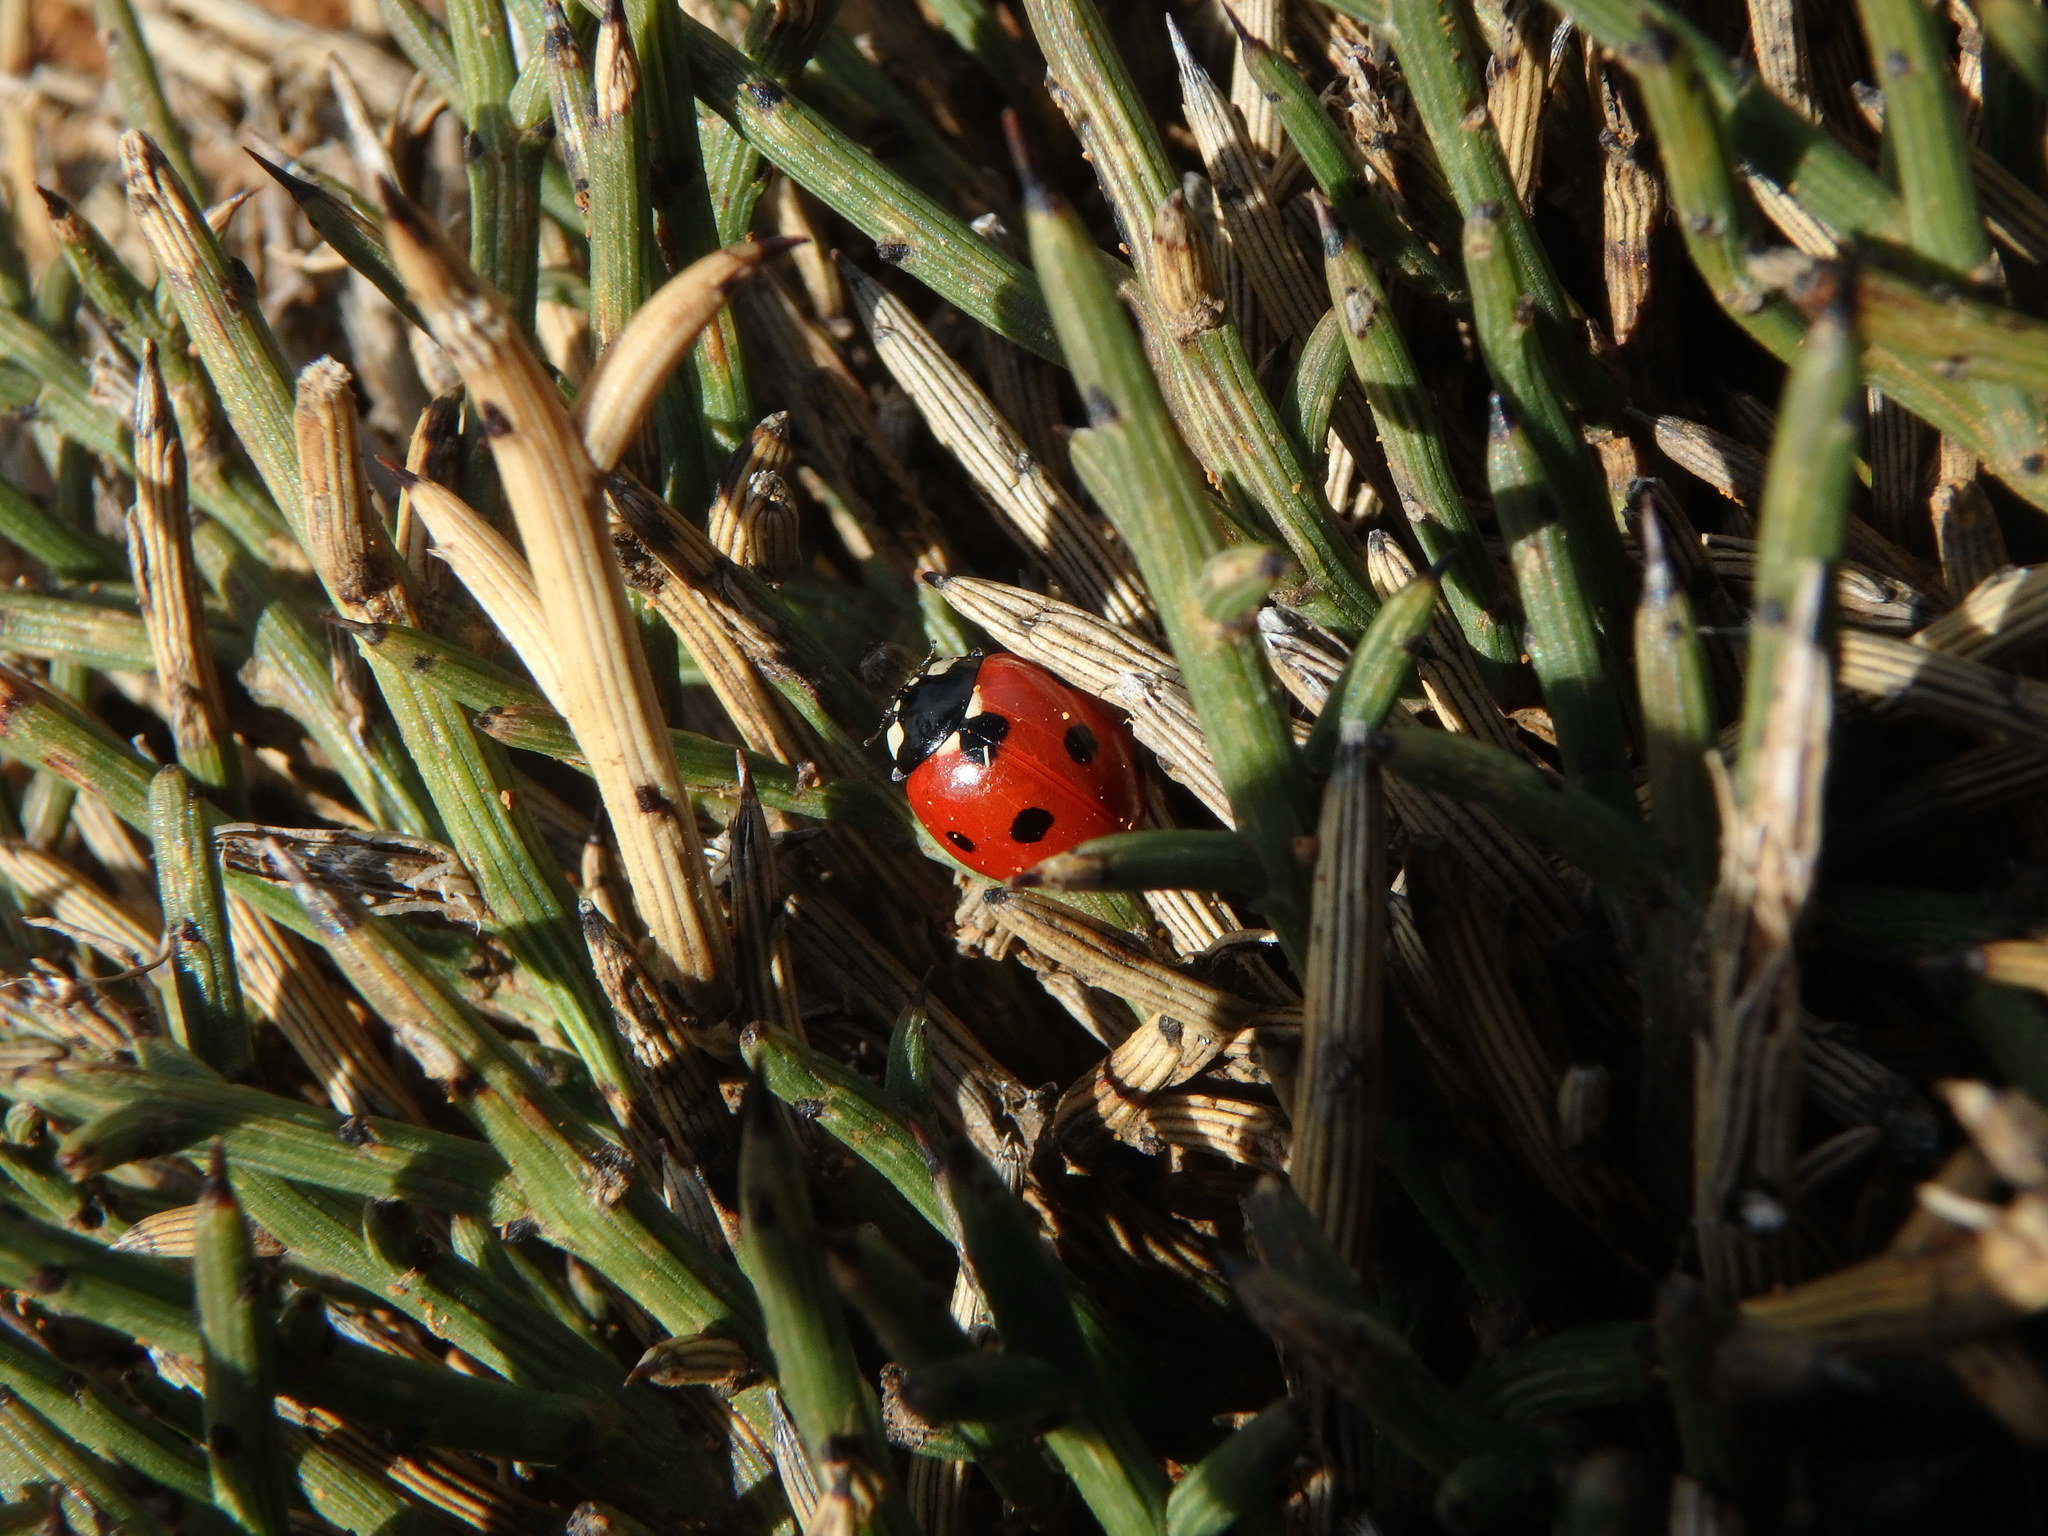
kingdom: Animalia
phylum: Arthropoda
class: Insecta
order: Coleoptera
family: Coccinellidae
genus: Coccinella
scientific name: Coccinella septempunctata
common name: Sevenspotted lady beetle
